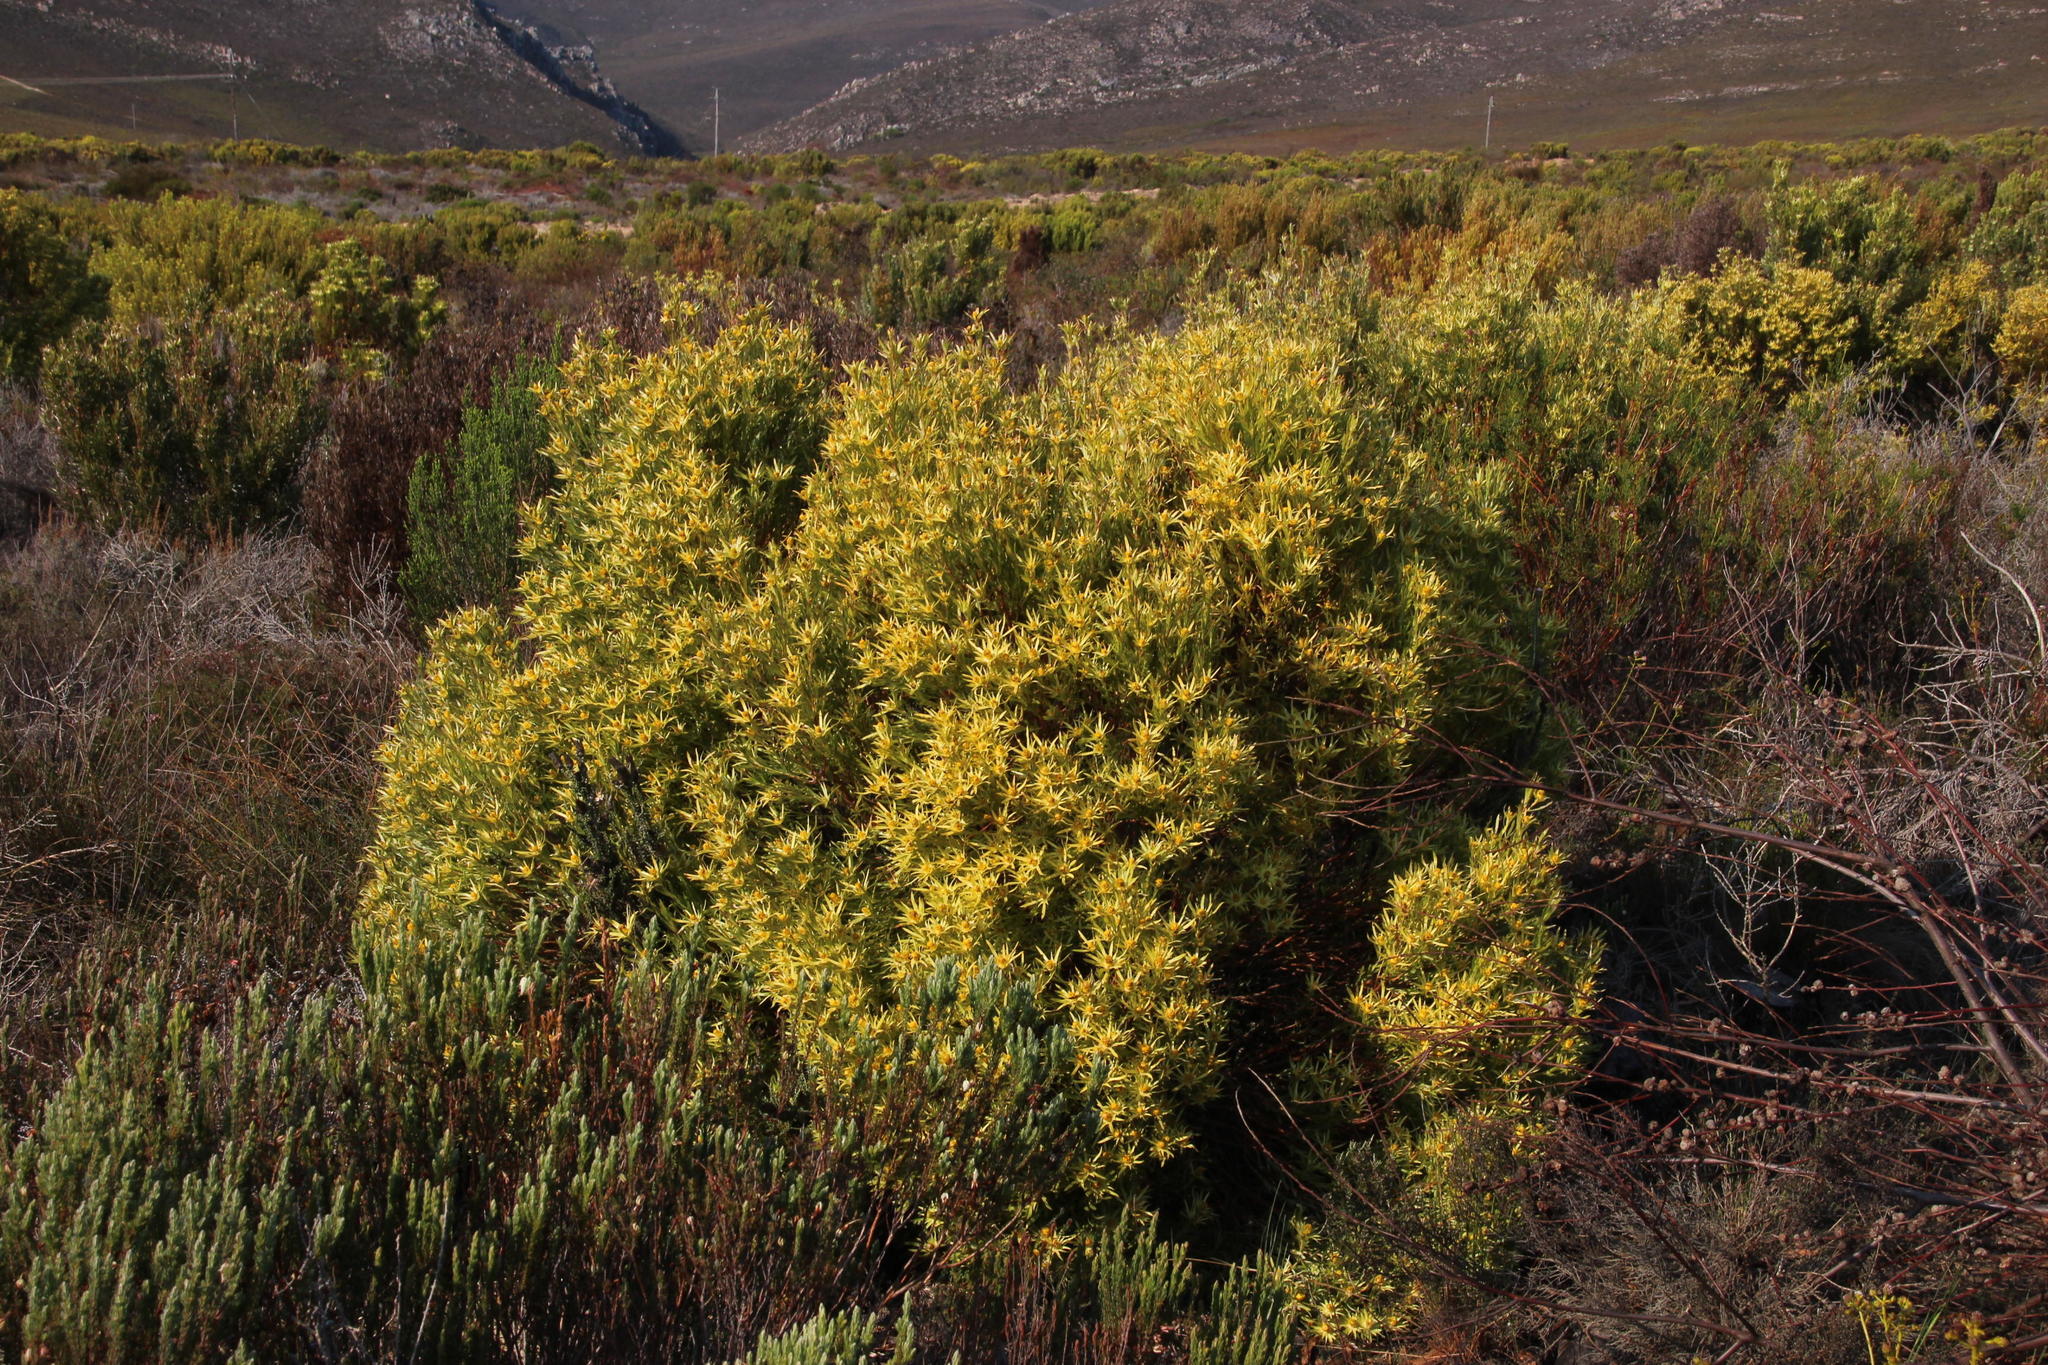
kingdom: Plantae
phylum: Tracheophyta
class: Magnoliopsida
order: Proteales
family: Proteaceae
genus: Leucadendron
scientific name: Leucadendron xanthoconus
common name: Sickle-leaf conebush
